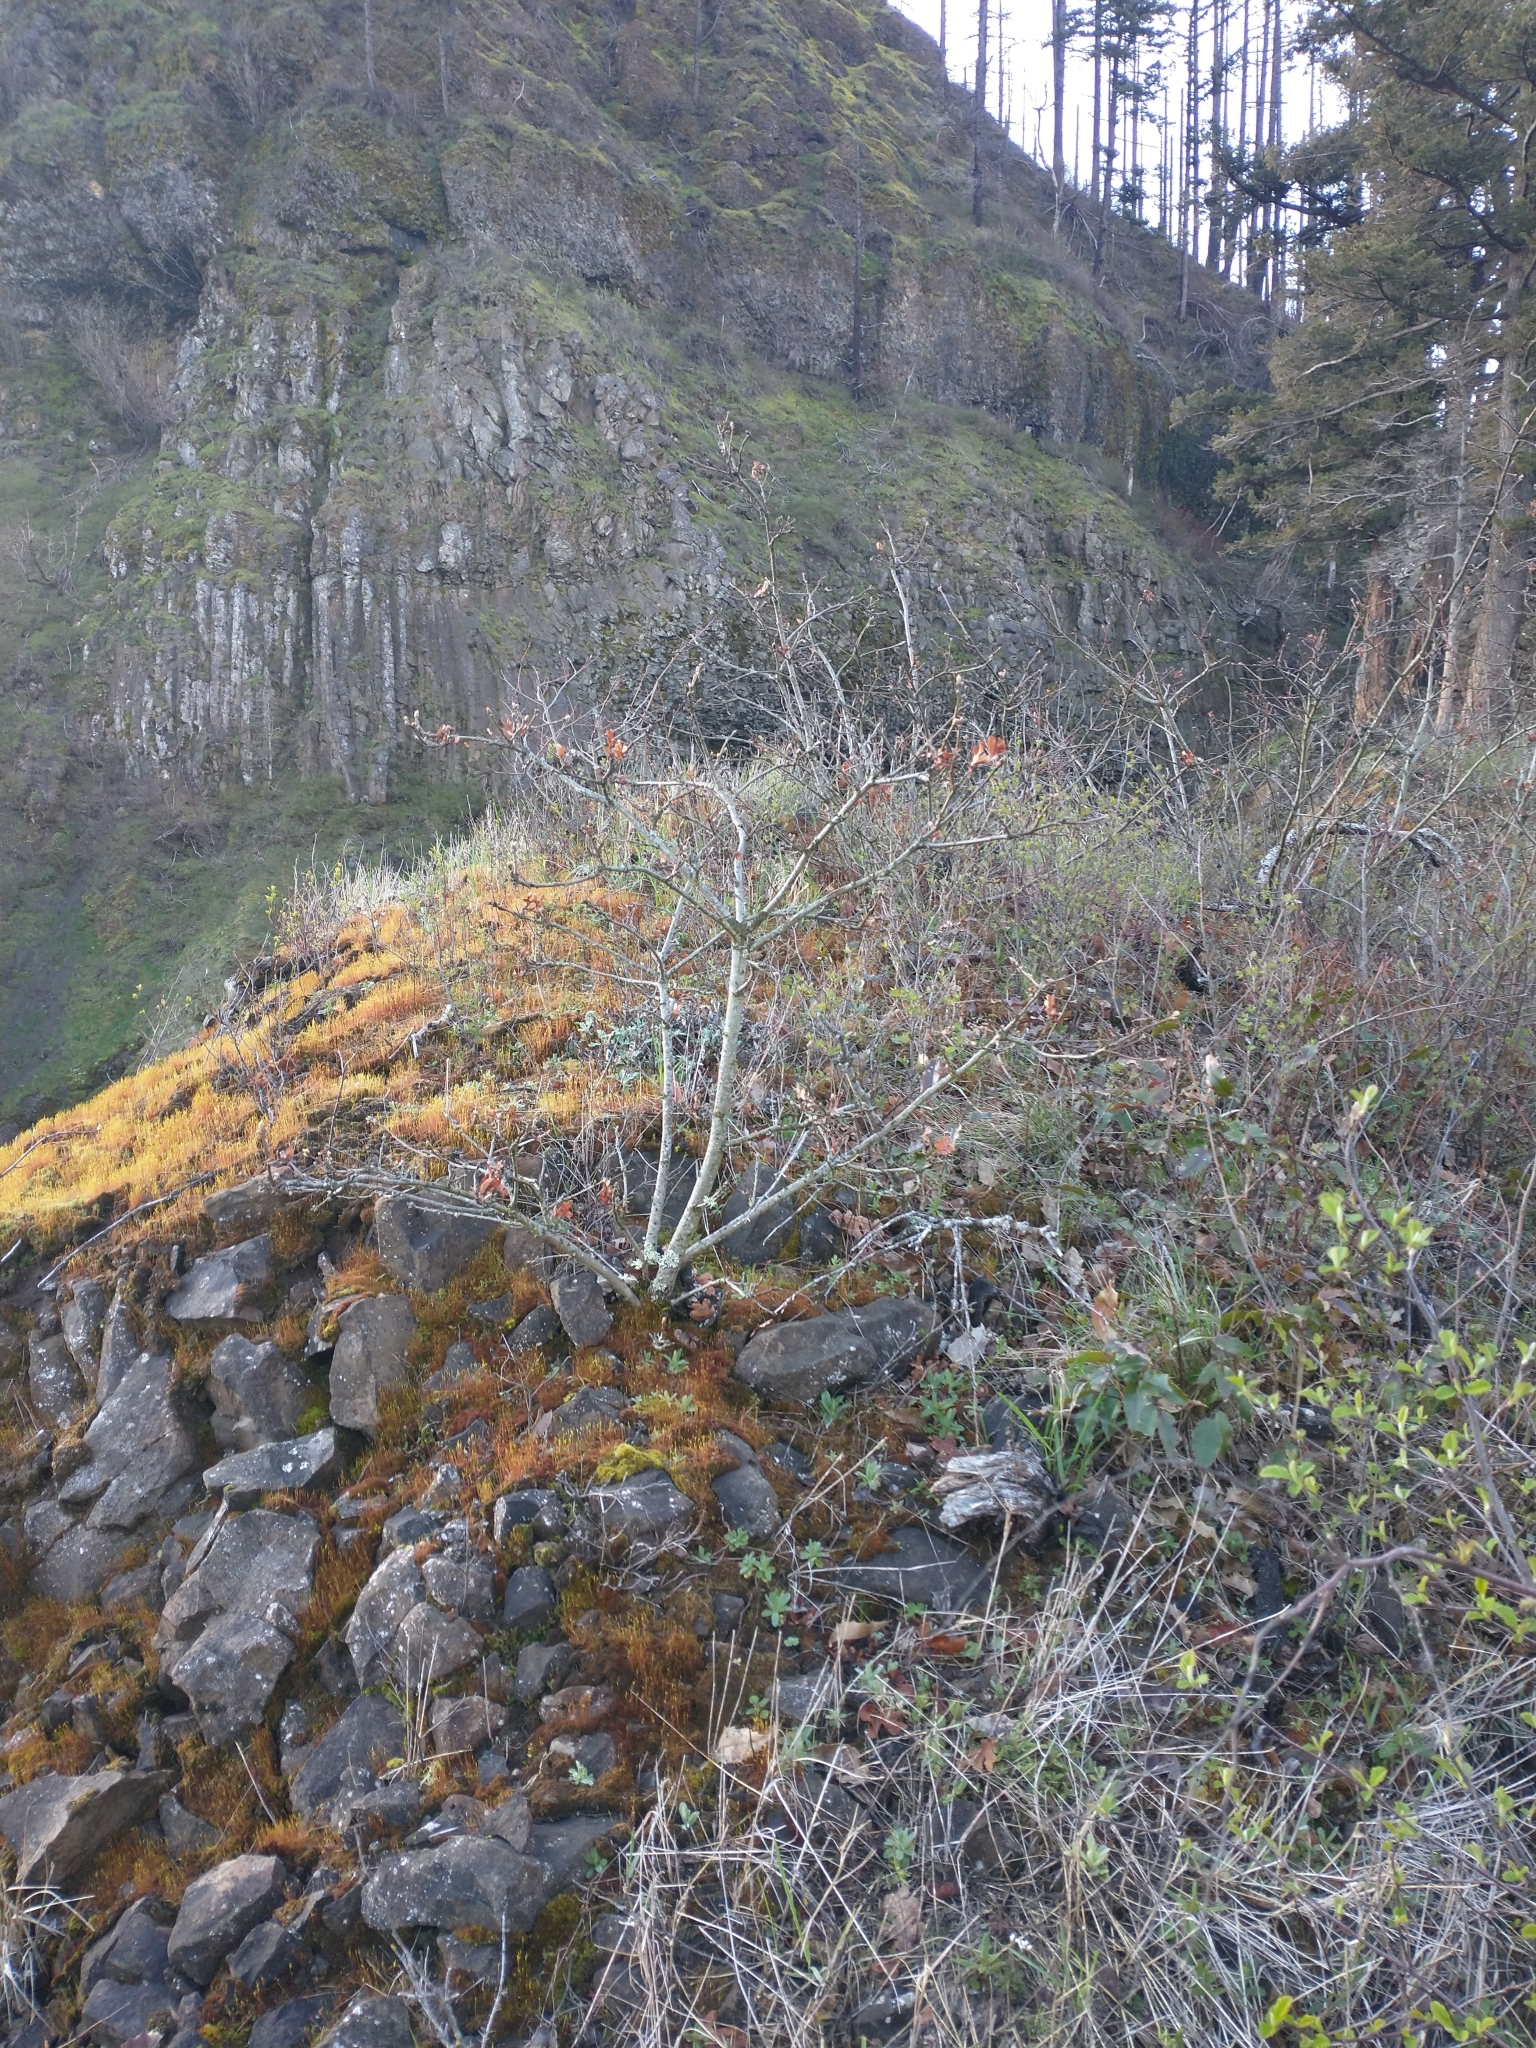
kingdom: Plantae
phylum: Tracheophyta
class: Magnoliopsida
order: Fagales
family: Fagaceae
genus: Quercus
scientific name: Quercus garryana
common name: Garry oak
